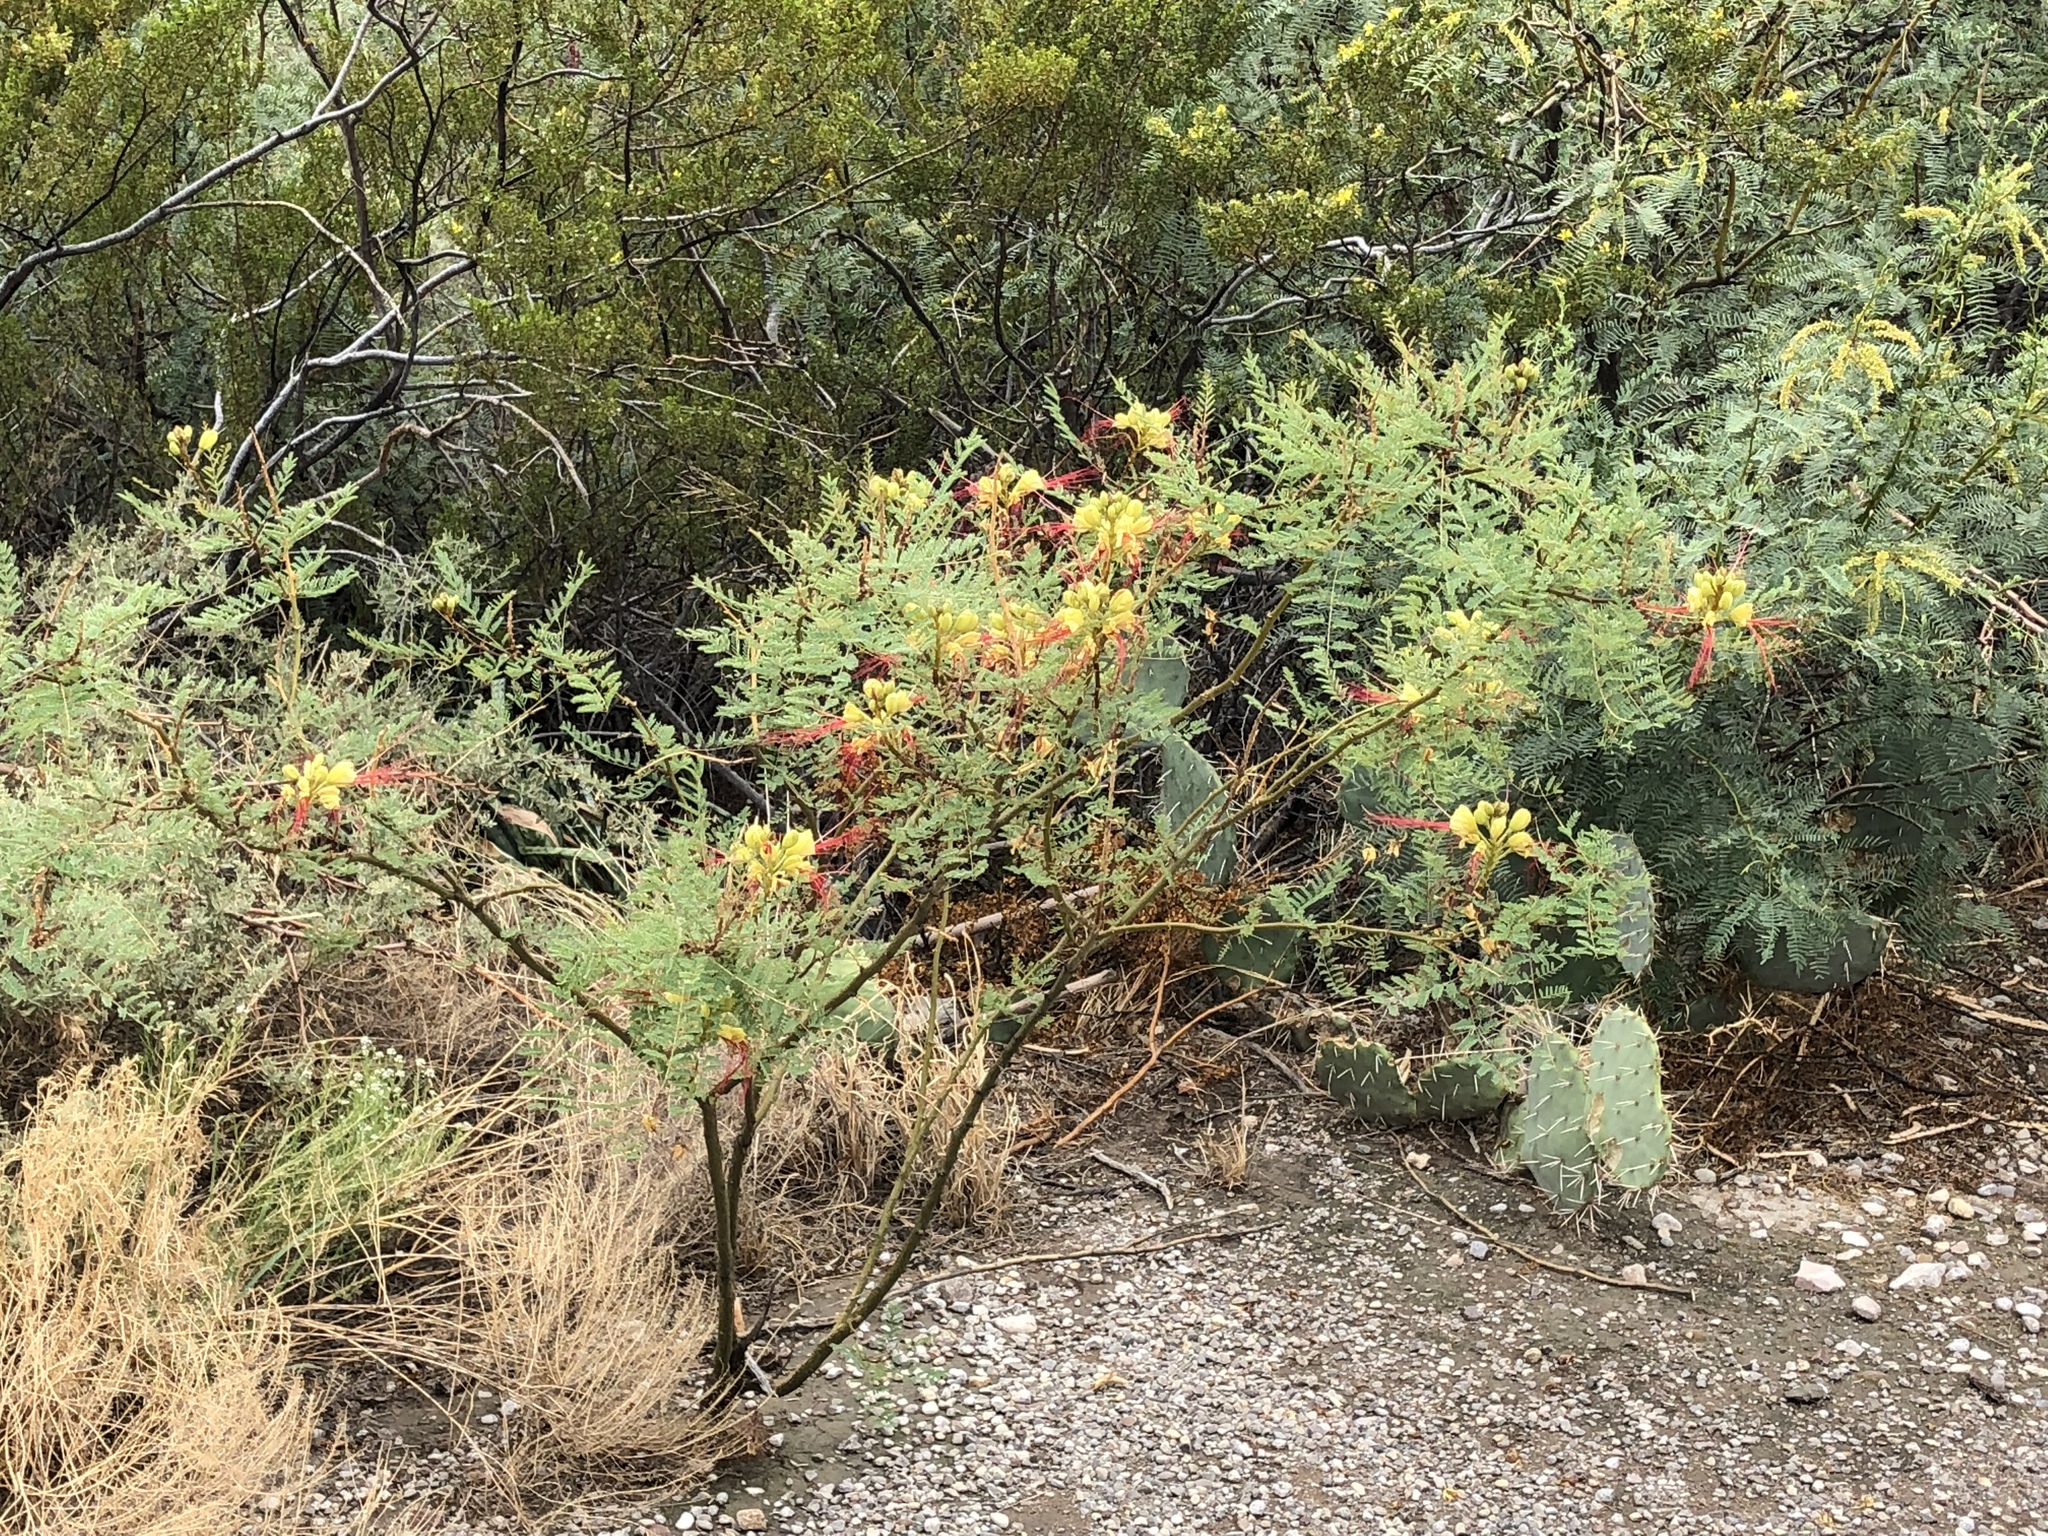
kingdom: Plantae
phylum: Tracheophyta
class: Magnoliopsida
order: Fabales
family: Fabaceae
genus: Erythrostemon
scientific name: Erythrostemon gilliesii
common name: Bird-of-paradise shrub
